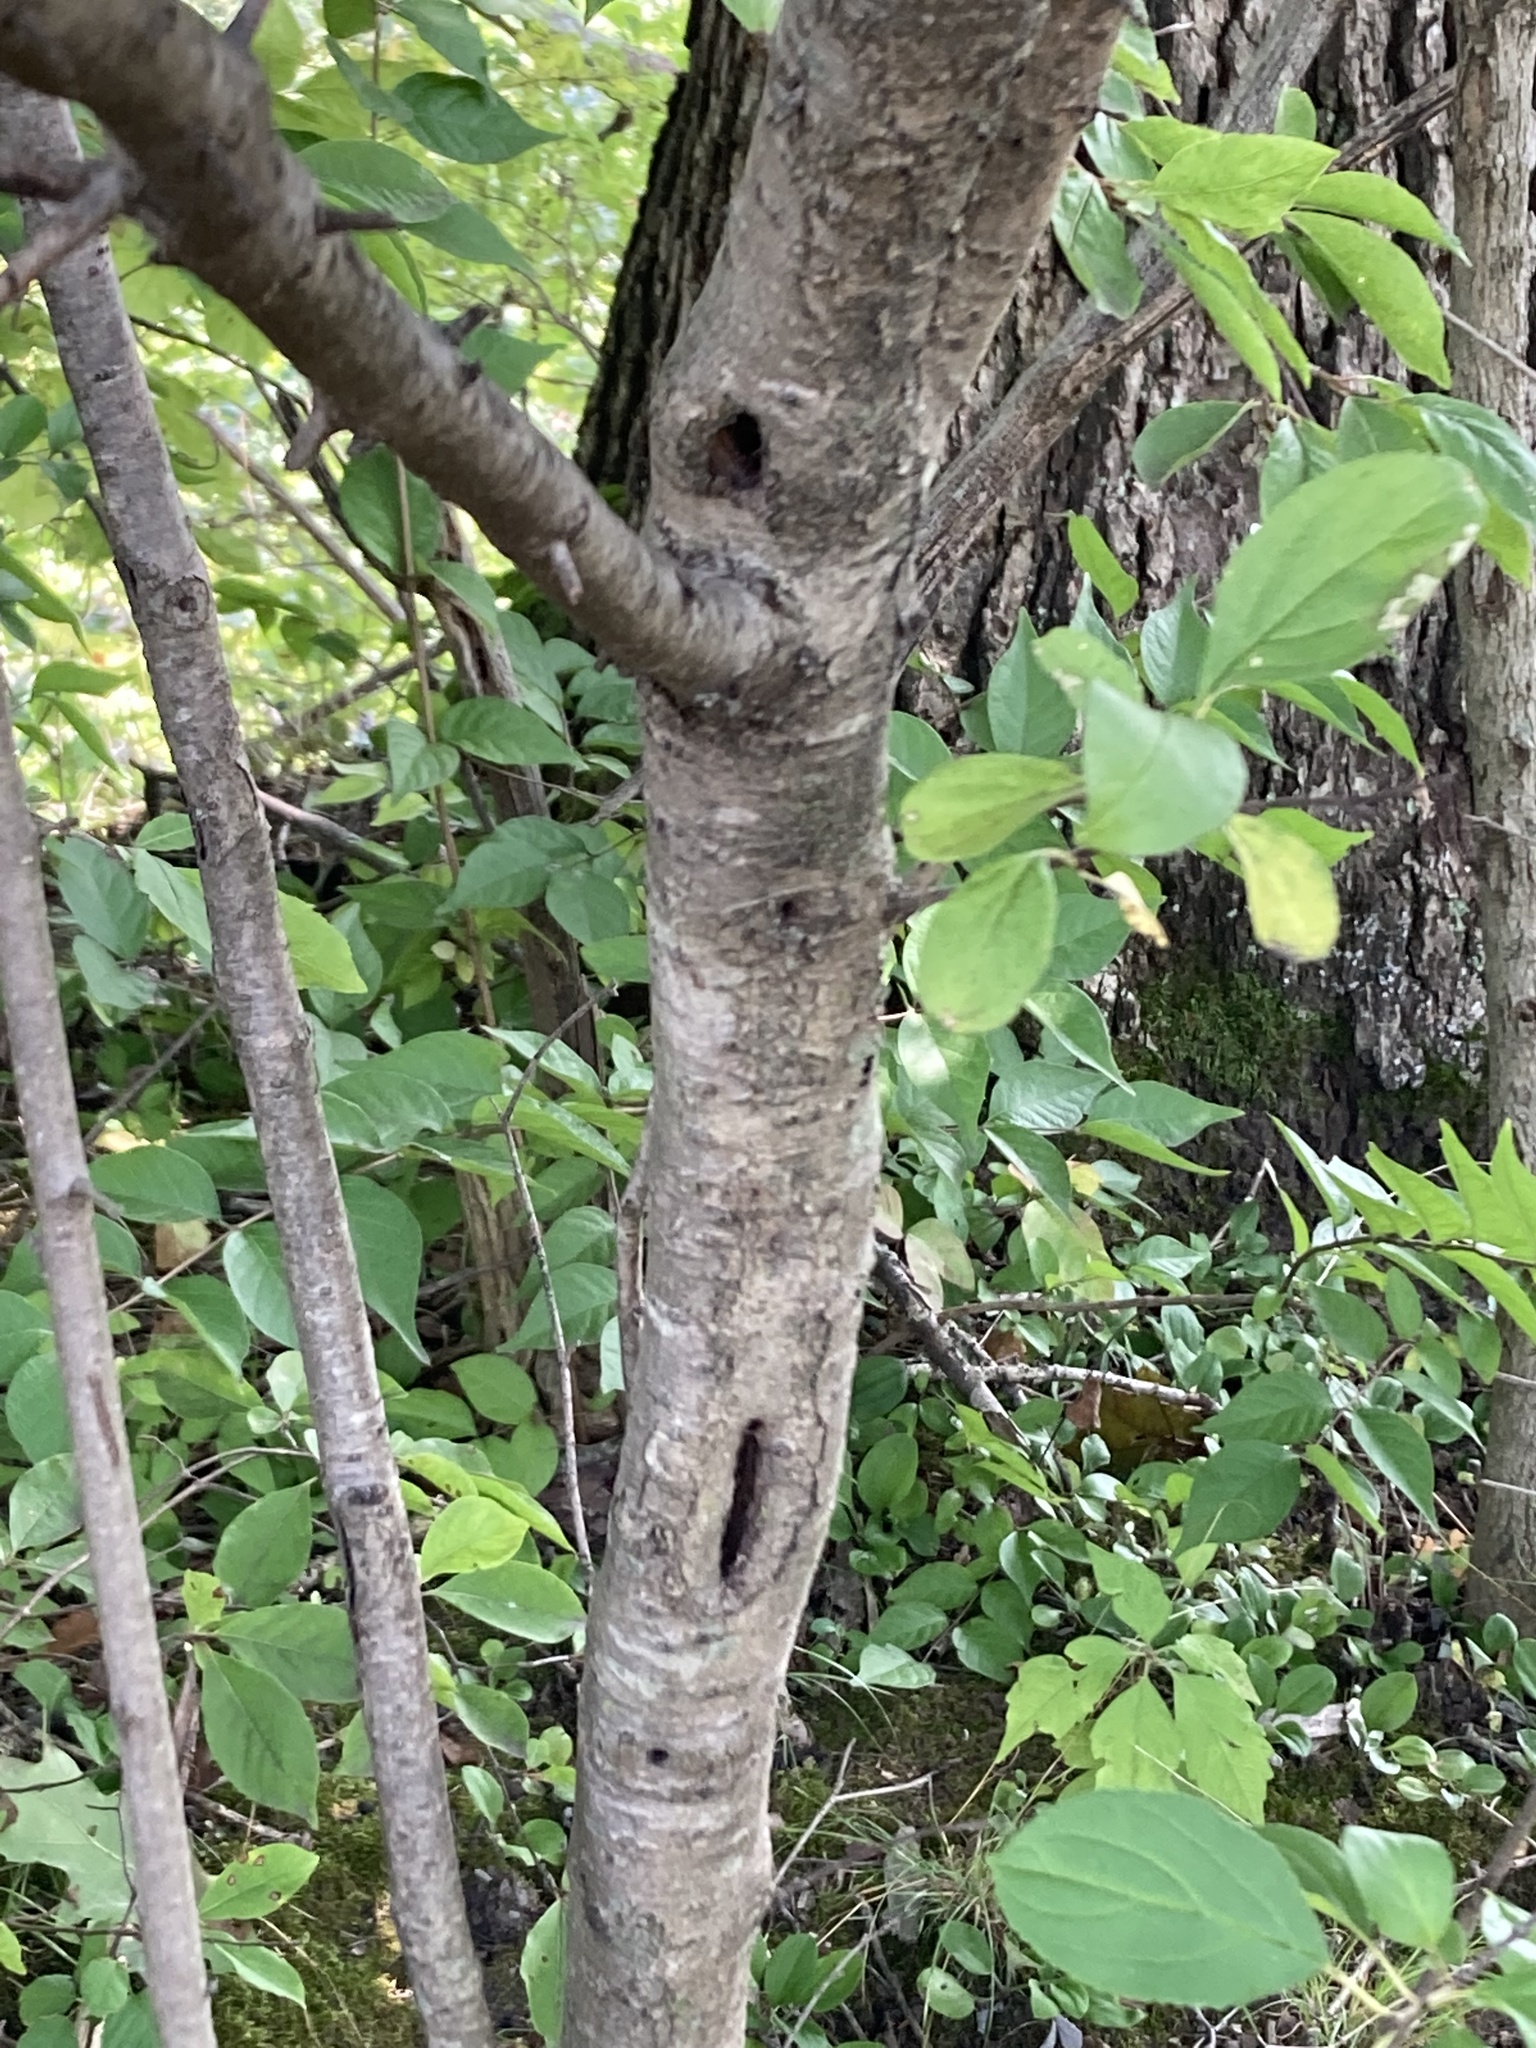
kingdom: Plantae
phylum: Tracheophyta
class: Magnoliopsida
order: Rosales
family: Rhamnaceae
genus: Rhamnus
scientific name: Rhamnus cathartica
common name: Common buckthorn
